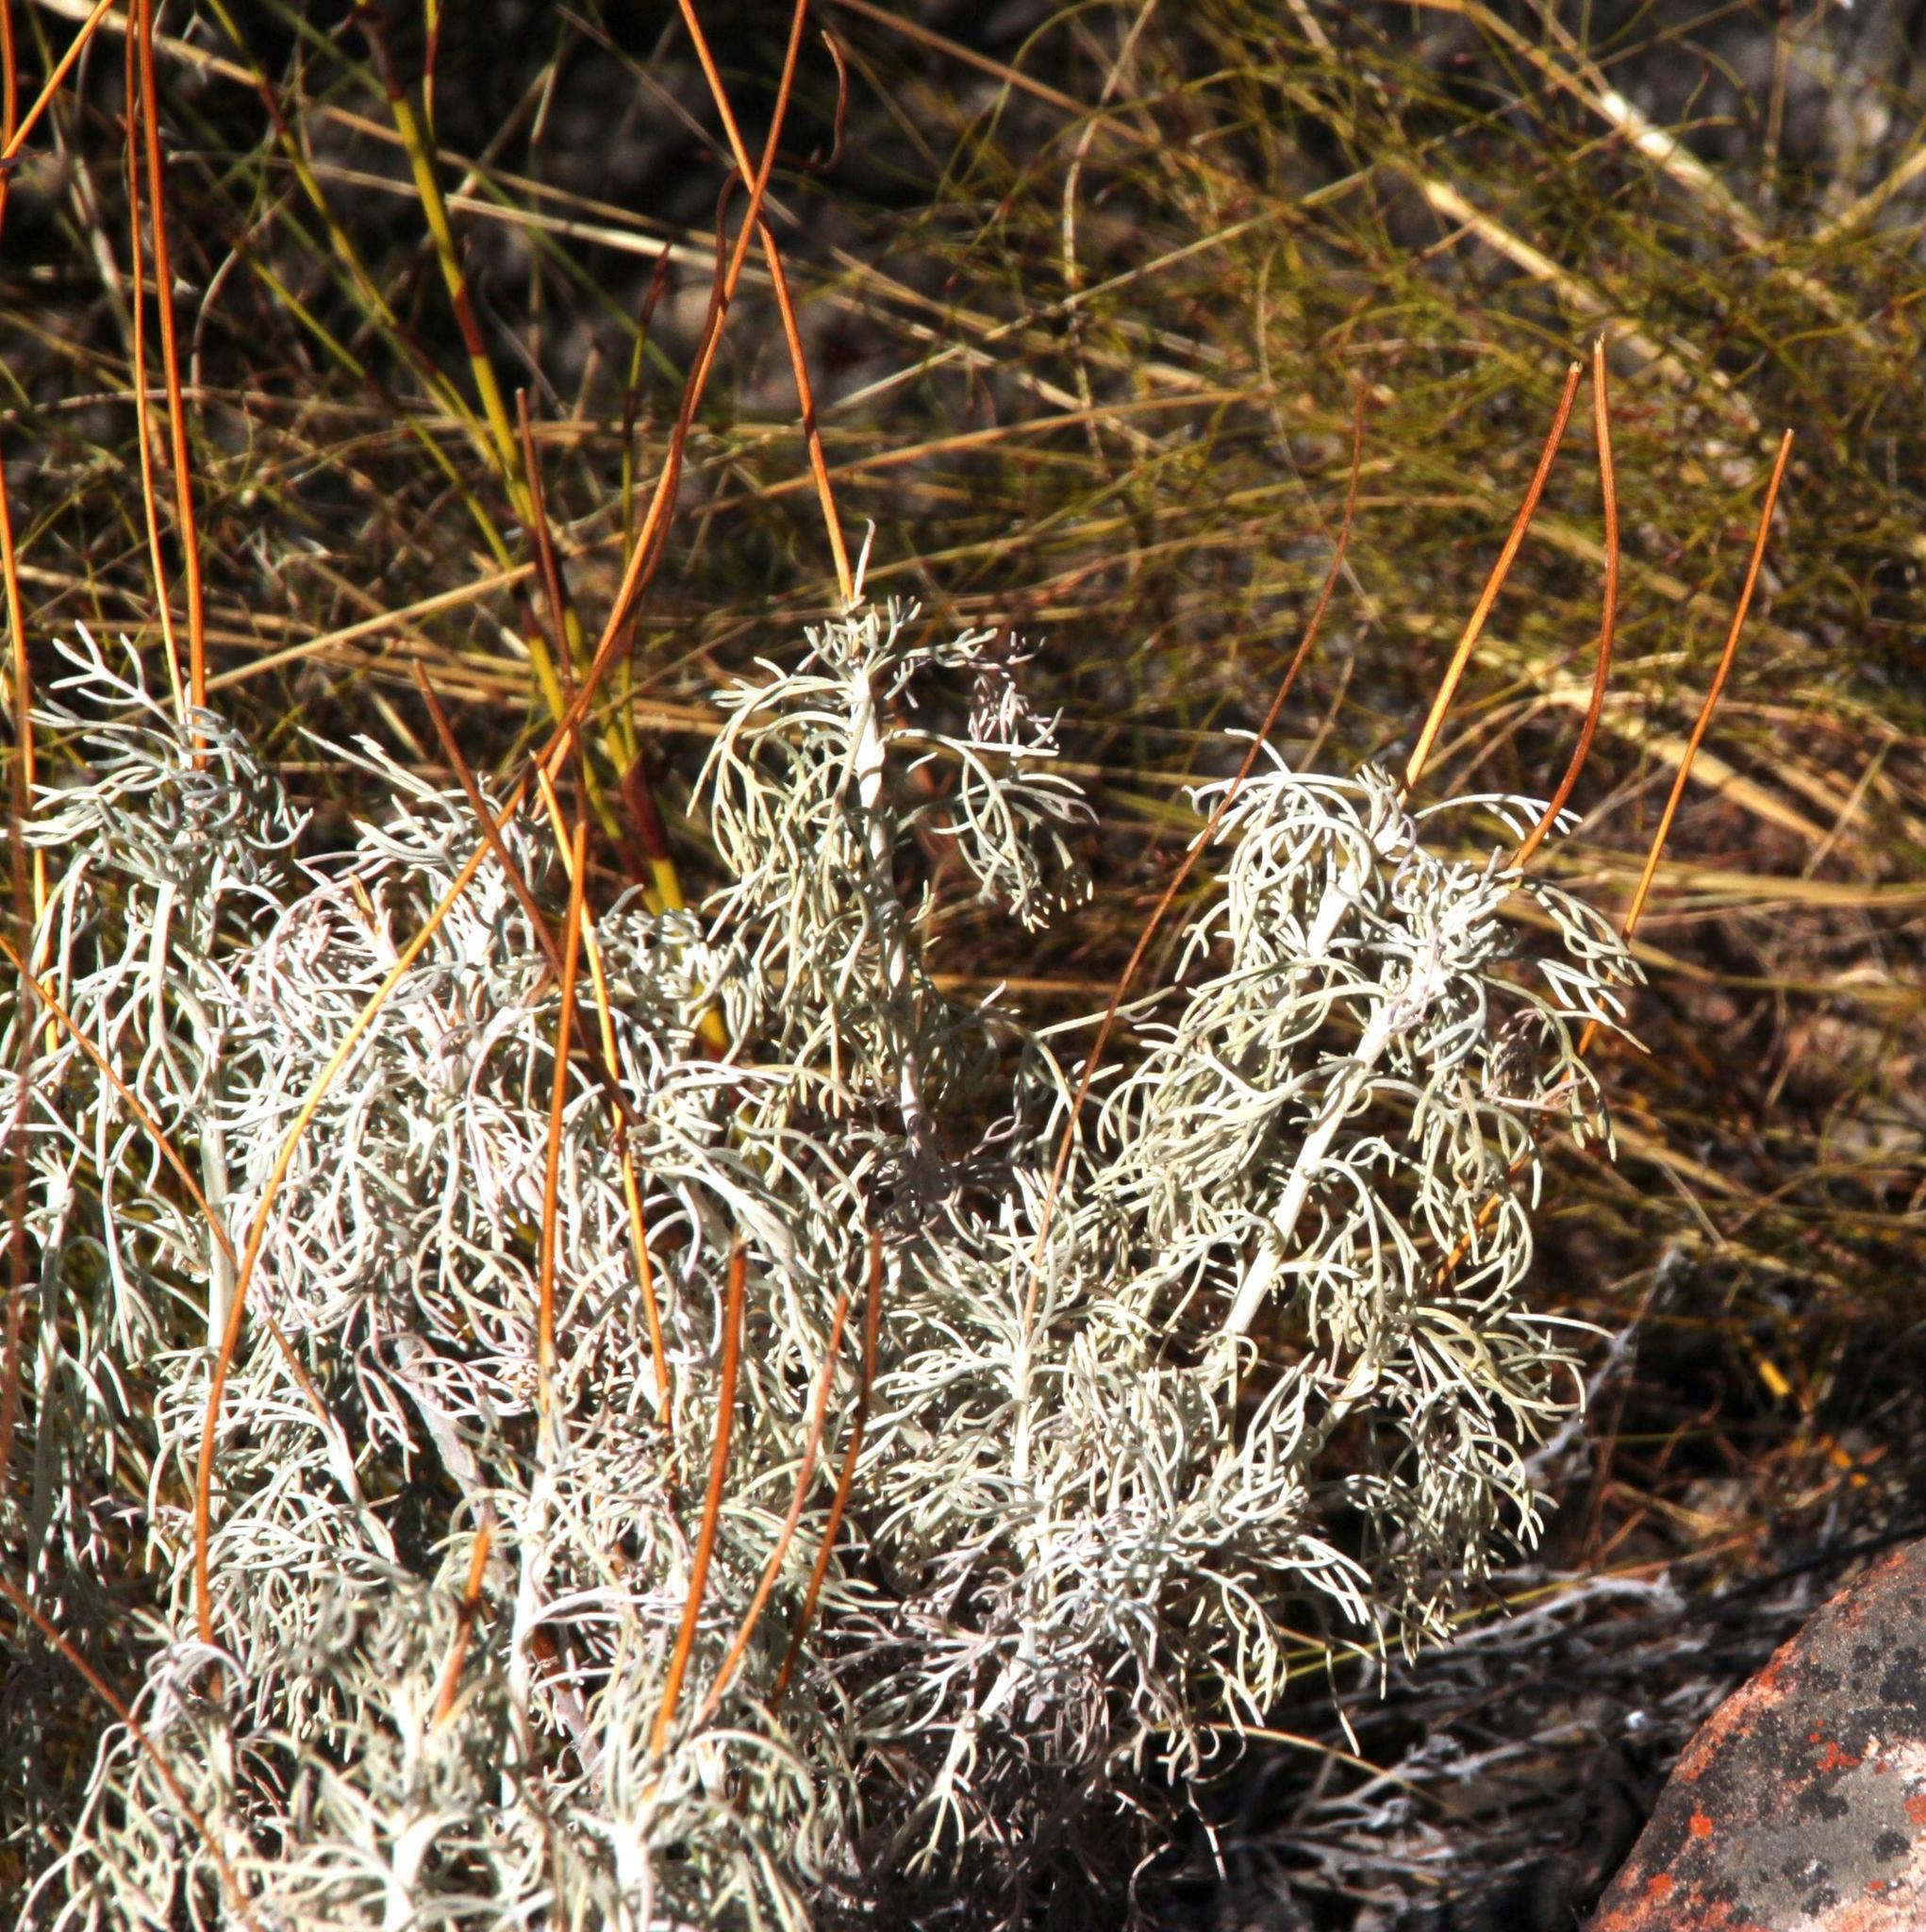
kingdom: Plantae
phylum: Tracheophyta
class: Magnoliopsida
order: Asterales
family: Asteraceae
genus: Ursinia
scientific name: Ursinia sericea
